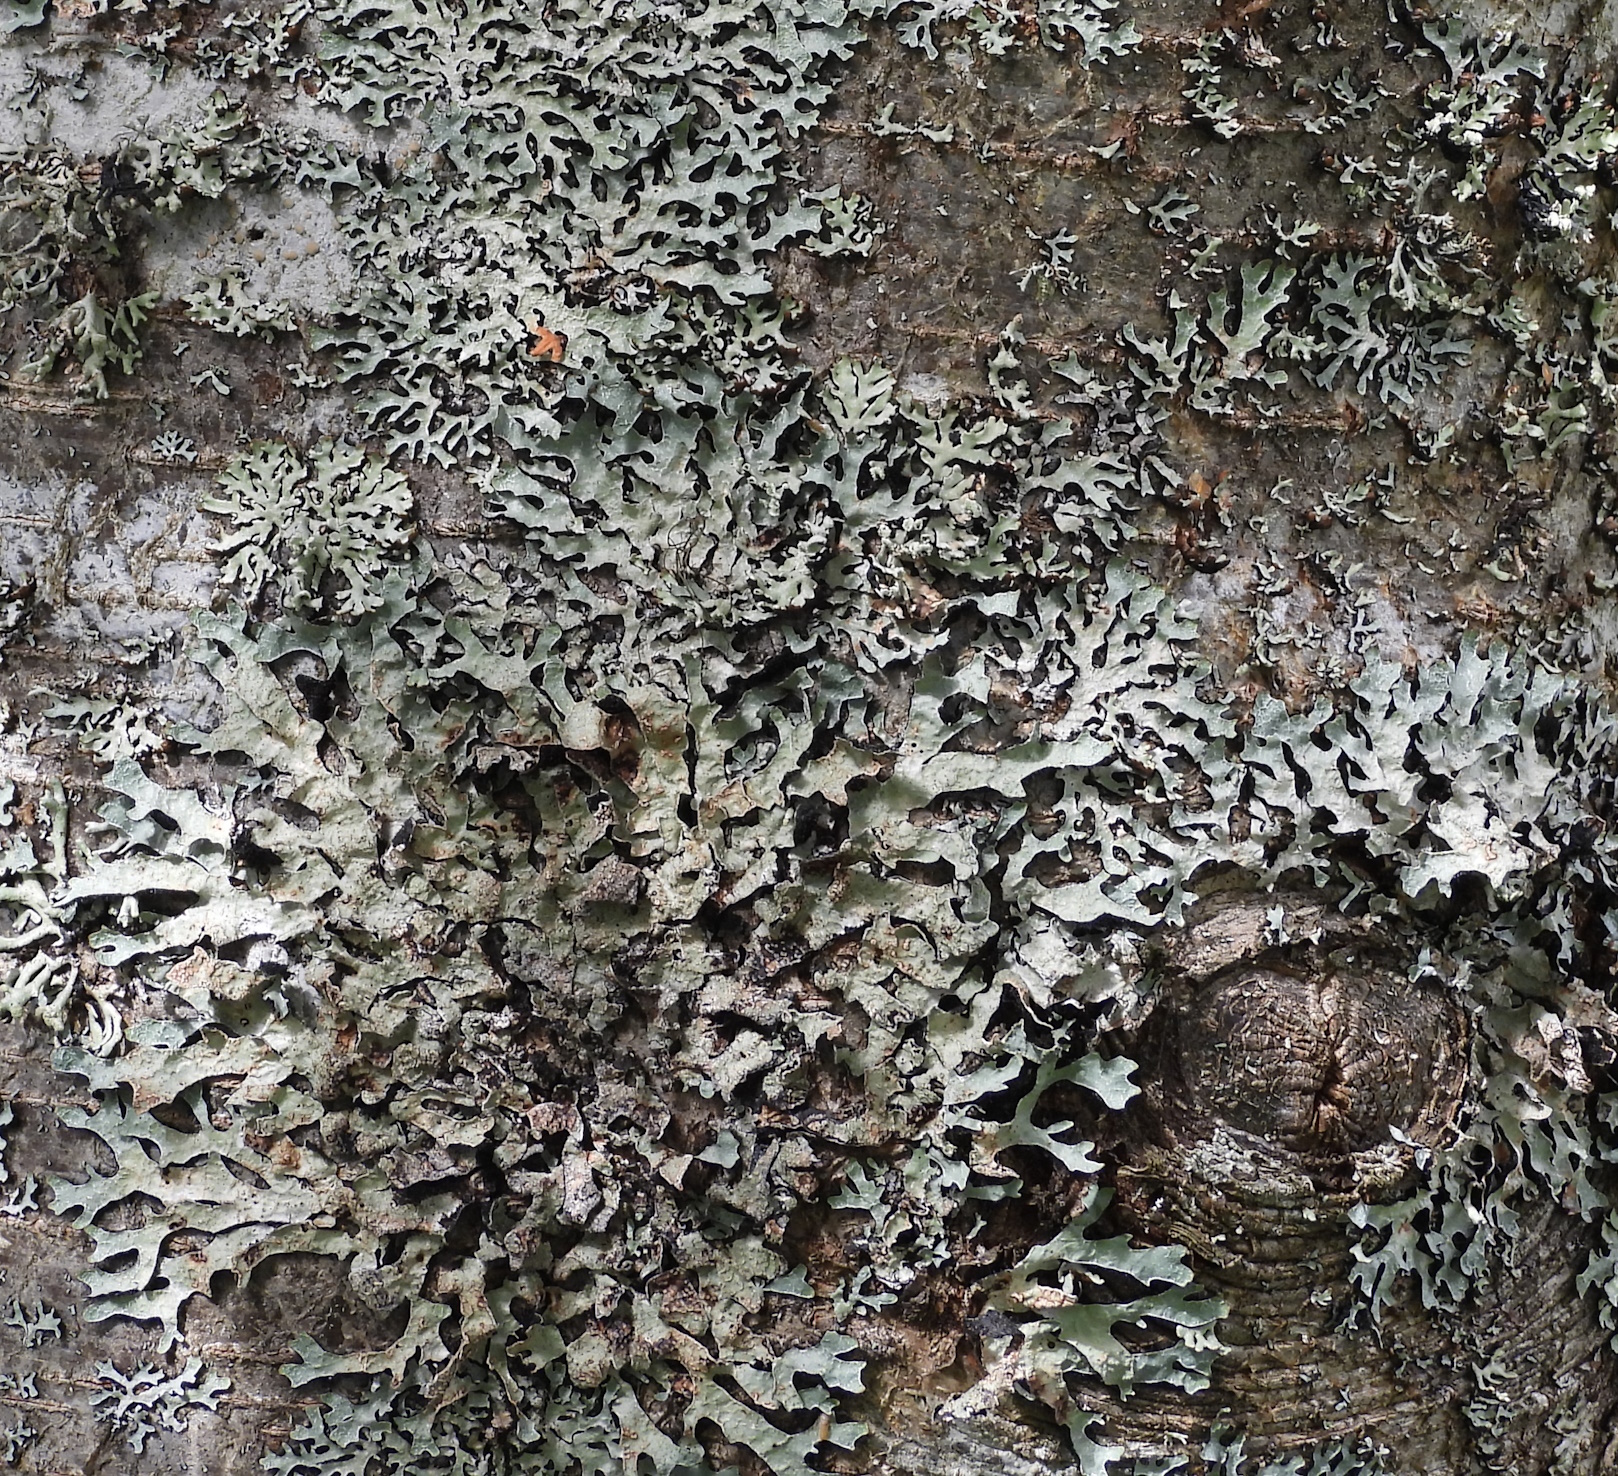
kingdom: Fungi
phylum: Ascomycota
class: Lecanoromycetes
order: Lecanorales
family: Parmeliaceae
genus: Parmelia
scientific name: Parmelia sulcata
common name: Netted shield lichen
